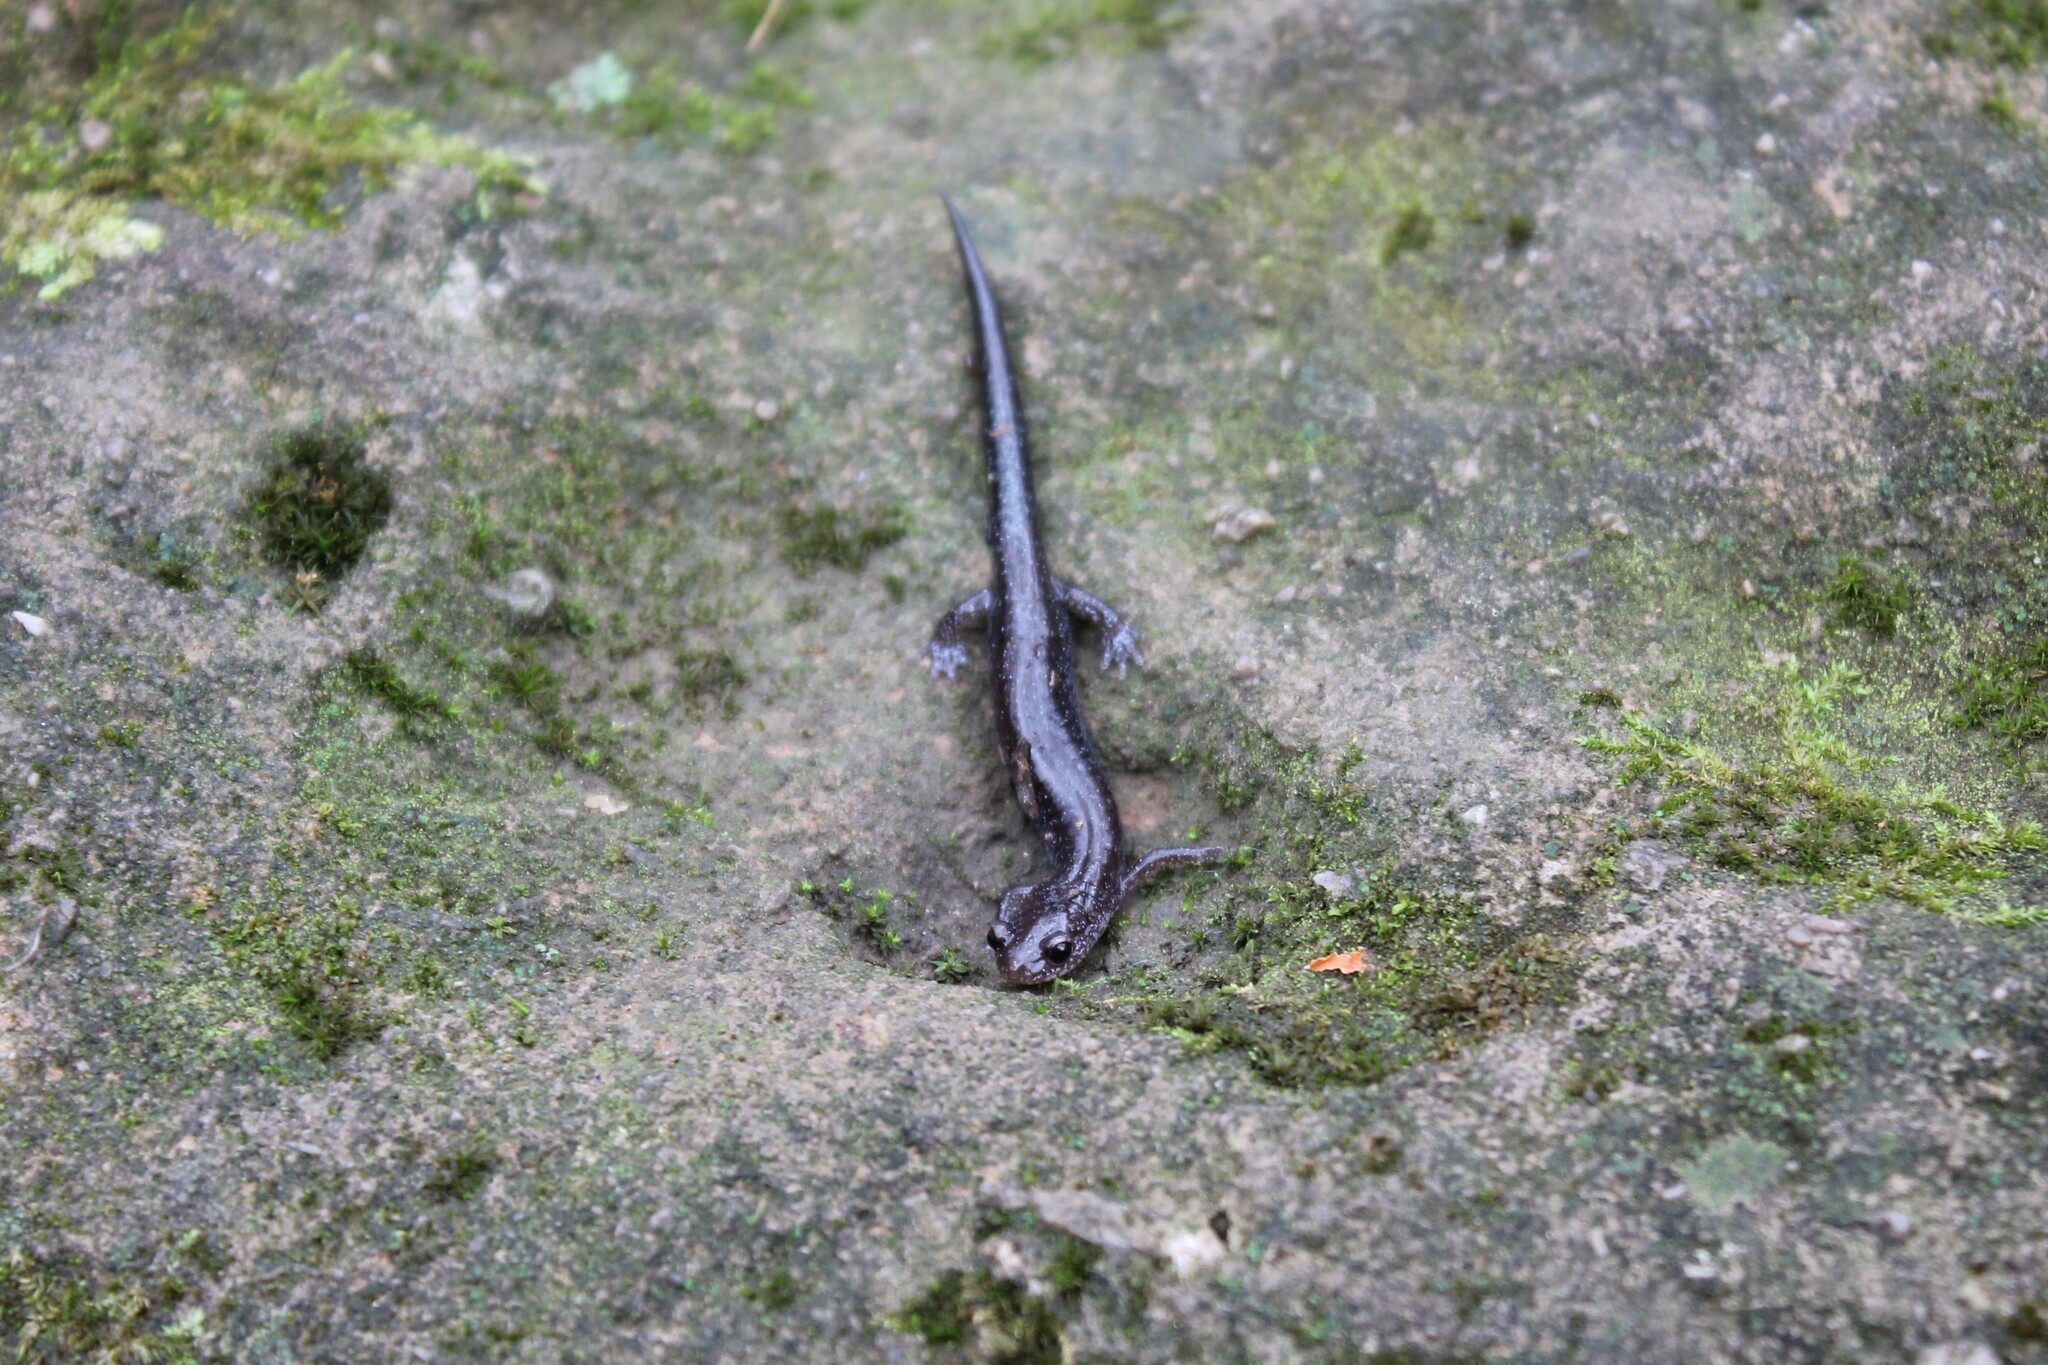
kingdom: Animalia
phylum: Chordata
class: Amphibia
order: Caudata
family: Plethodontidae
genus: Plethodon
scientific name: Plethodon dorsalis
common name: Northern zigzag salamander
